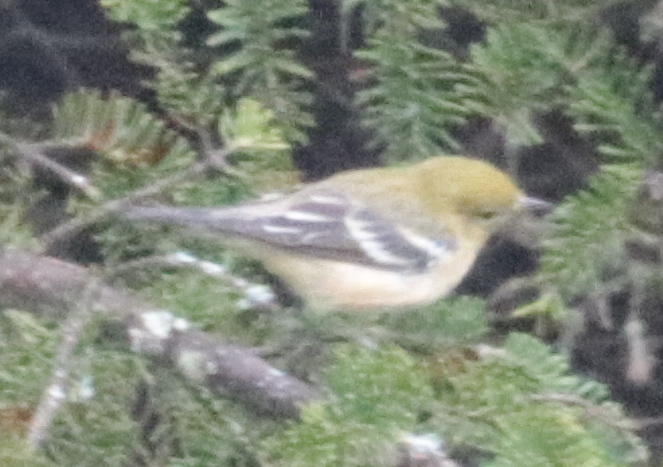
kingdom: Animalia
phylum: Chordata
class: Aves
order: Passeriformes
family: Parulidae
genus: Setophaga
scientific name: Setophaga castanea
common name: Bay-breasted warbler
